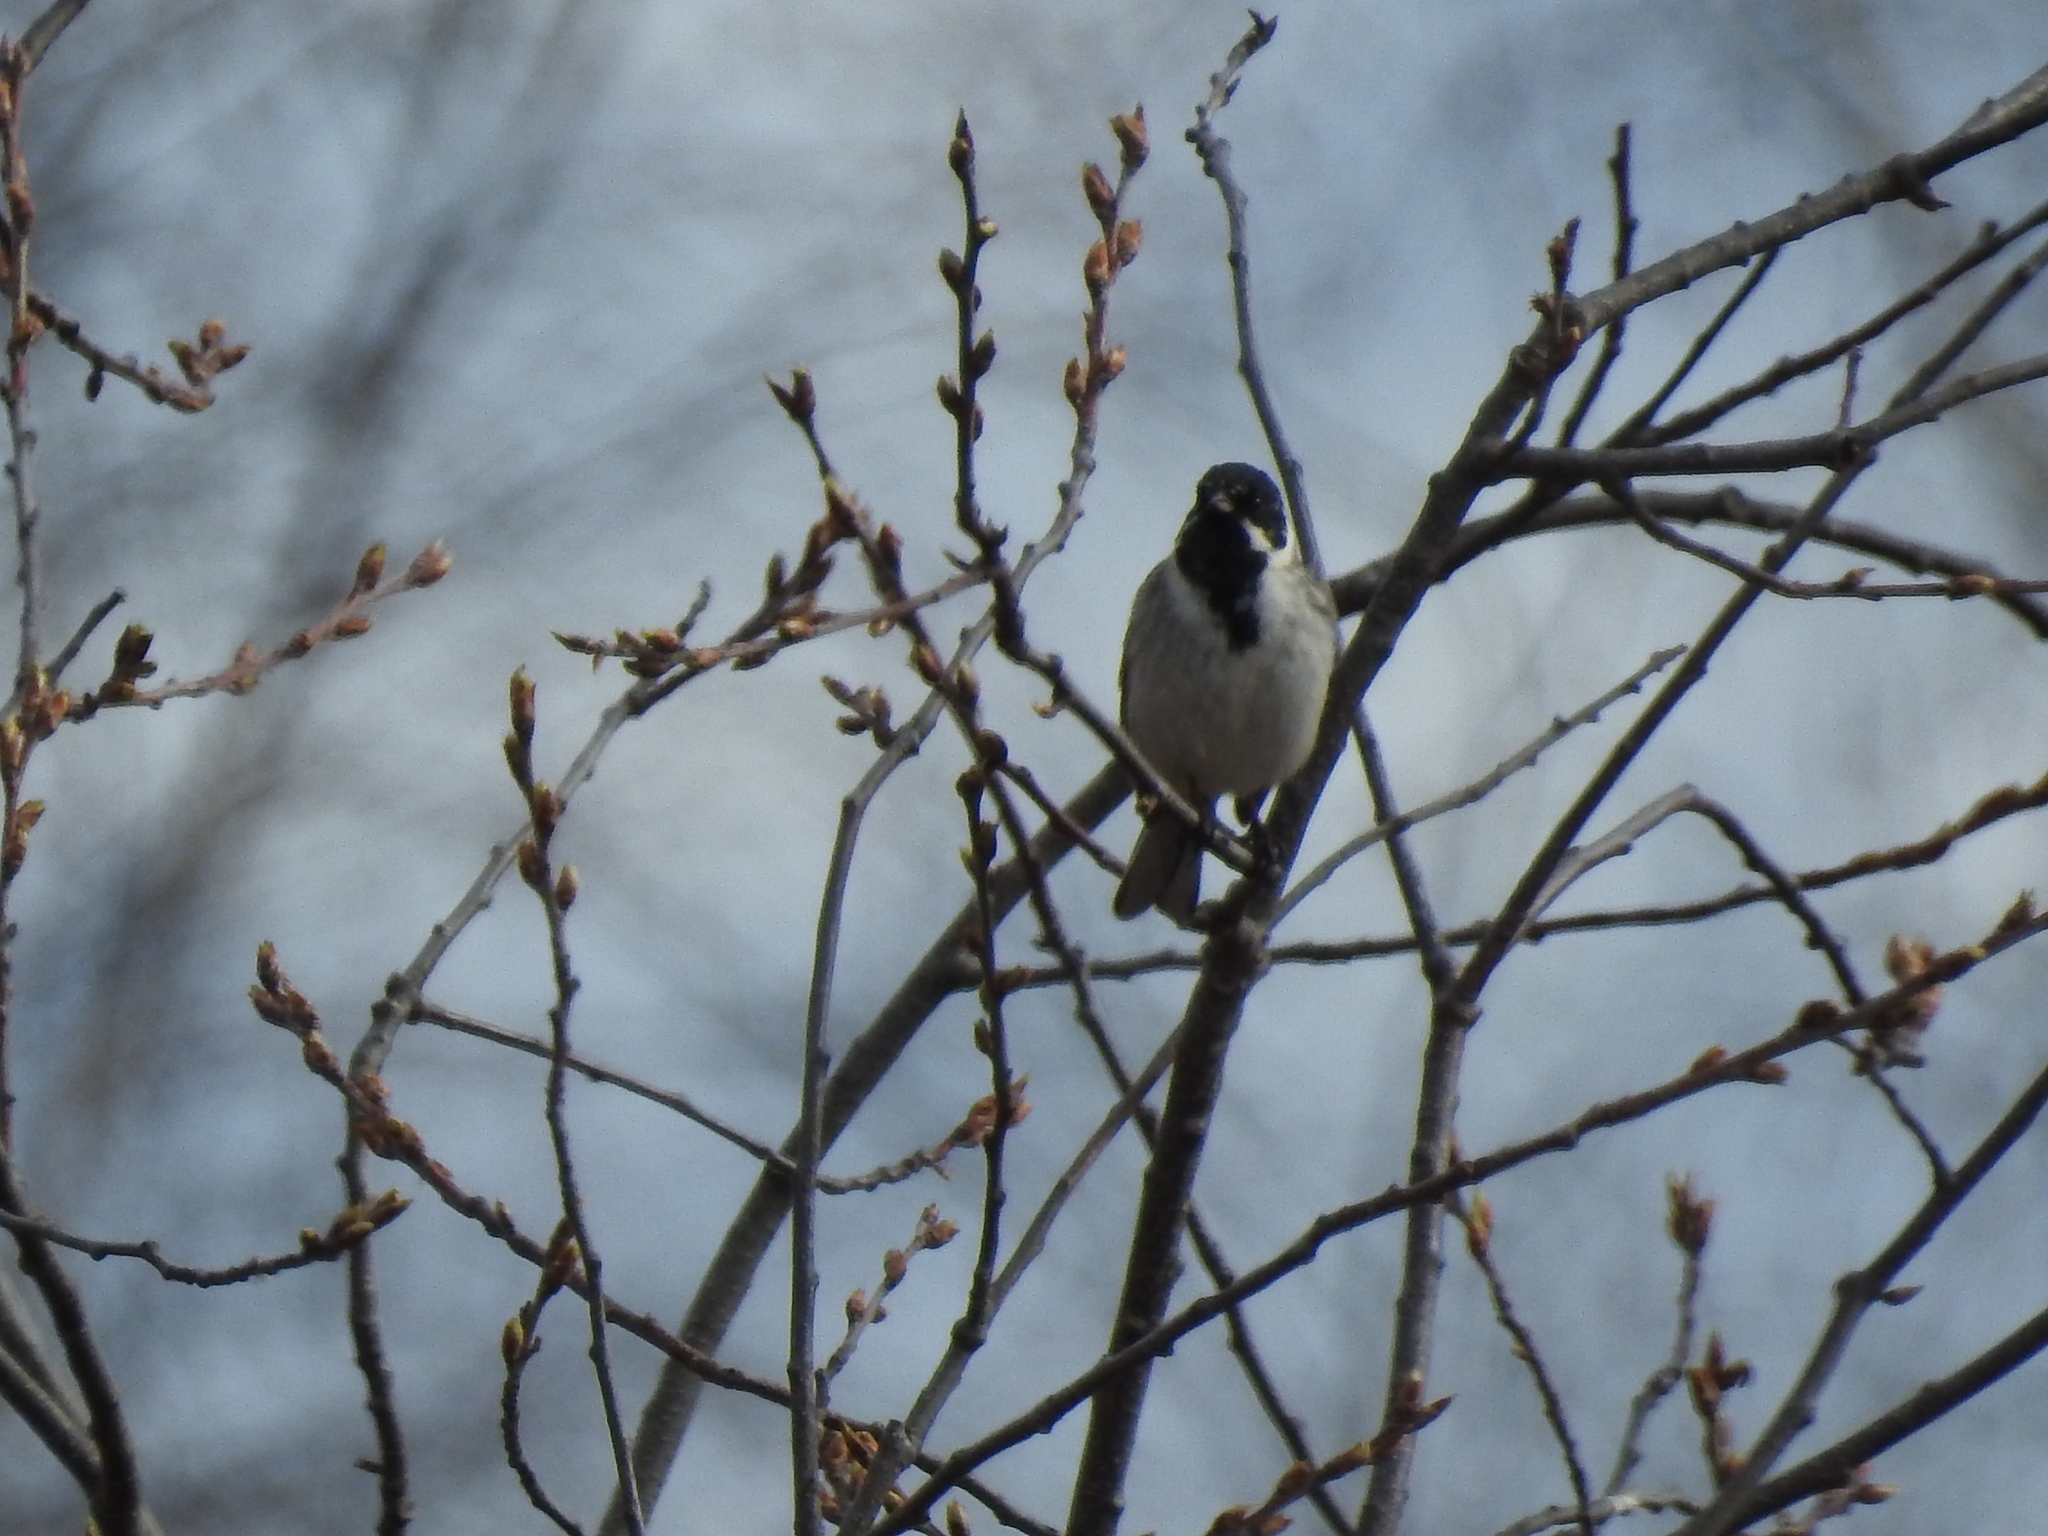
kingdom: Animalia
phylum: Chordata
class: Aves
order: Passeriformes
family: Emberizidae
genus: Emberiza
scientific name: Emberiza schoeniclus
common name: Reed bunting
